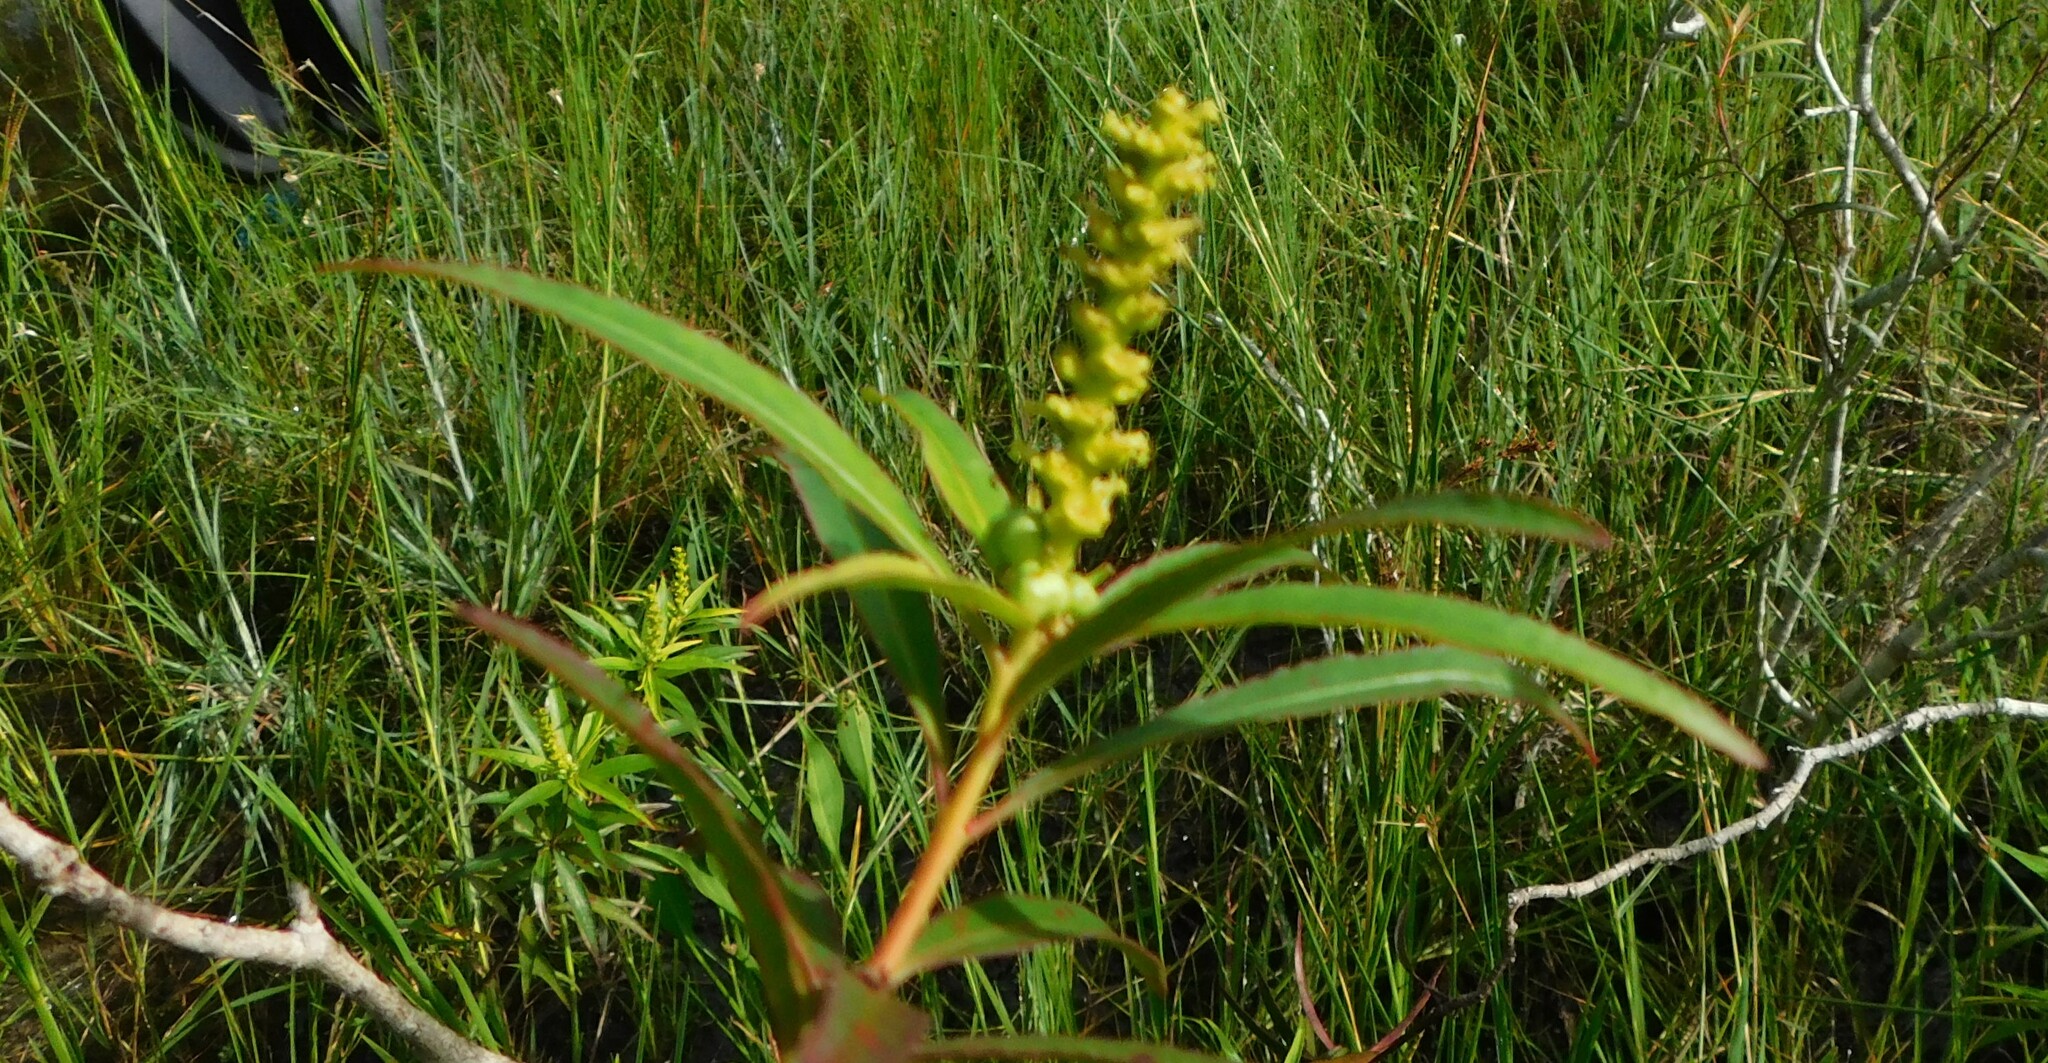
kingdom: Plantae
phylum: Tracheophyta
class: Magnoliopsida
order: Malpighiales
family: Euphorbiaceae
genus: Stillingia
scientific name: Stillingia aquatica
